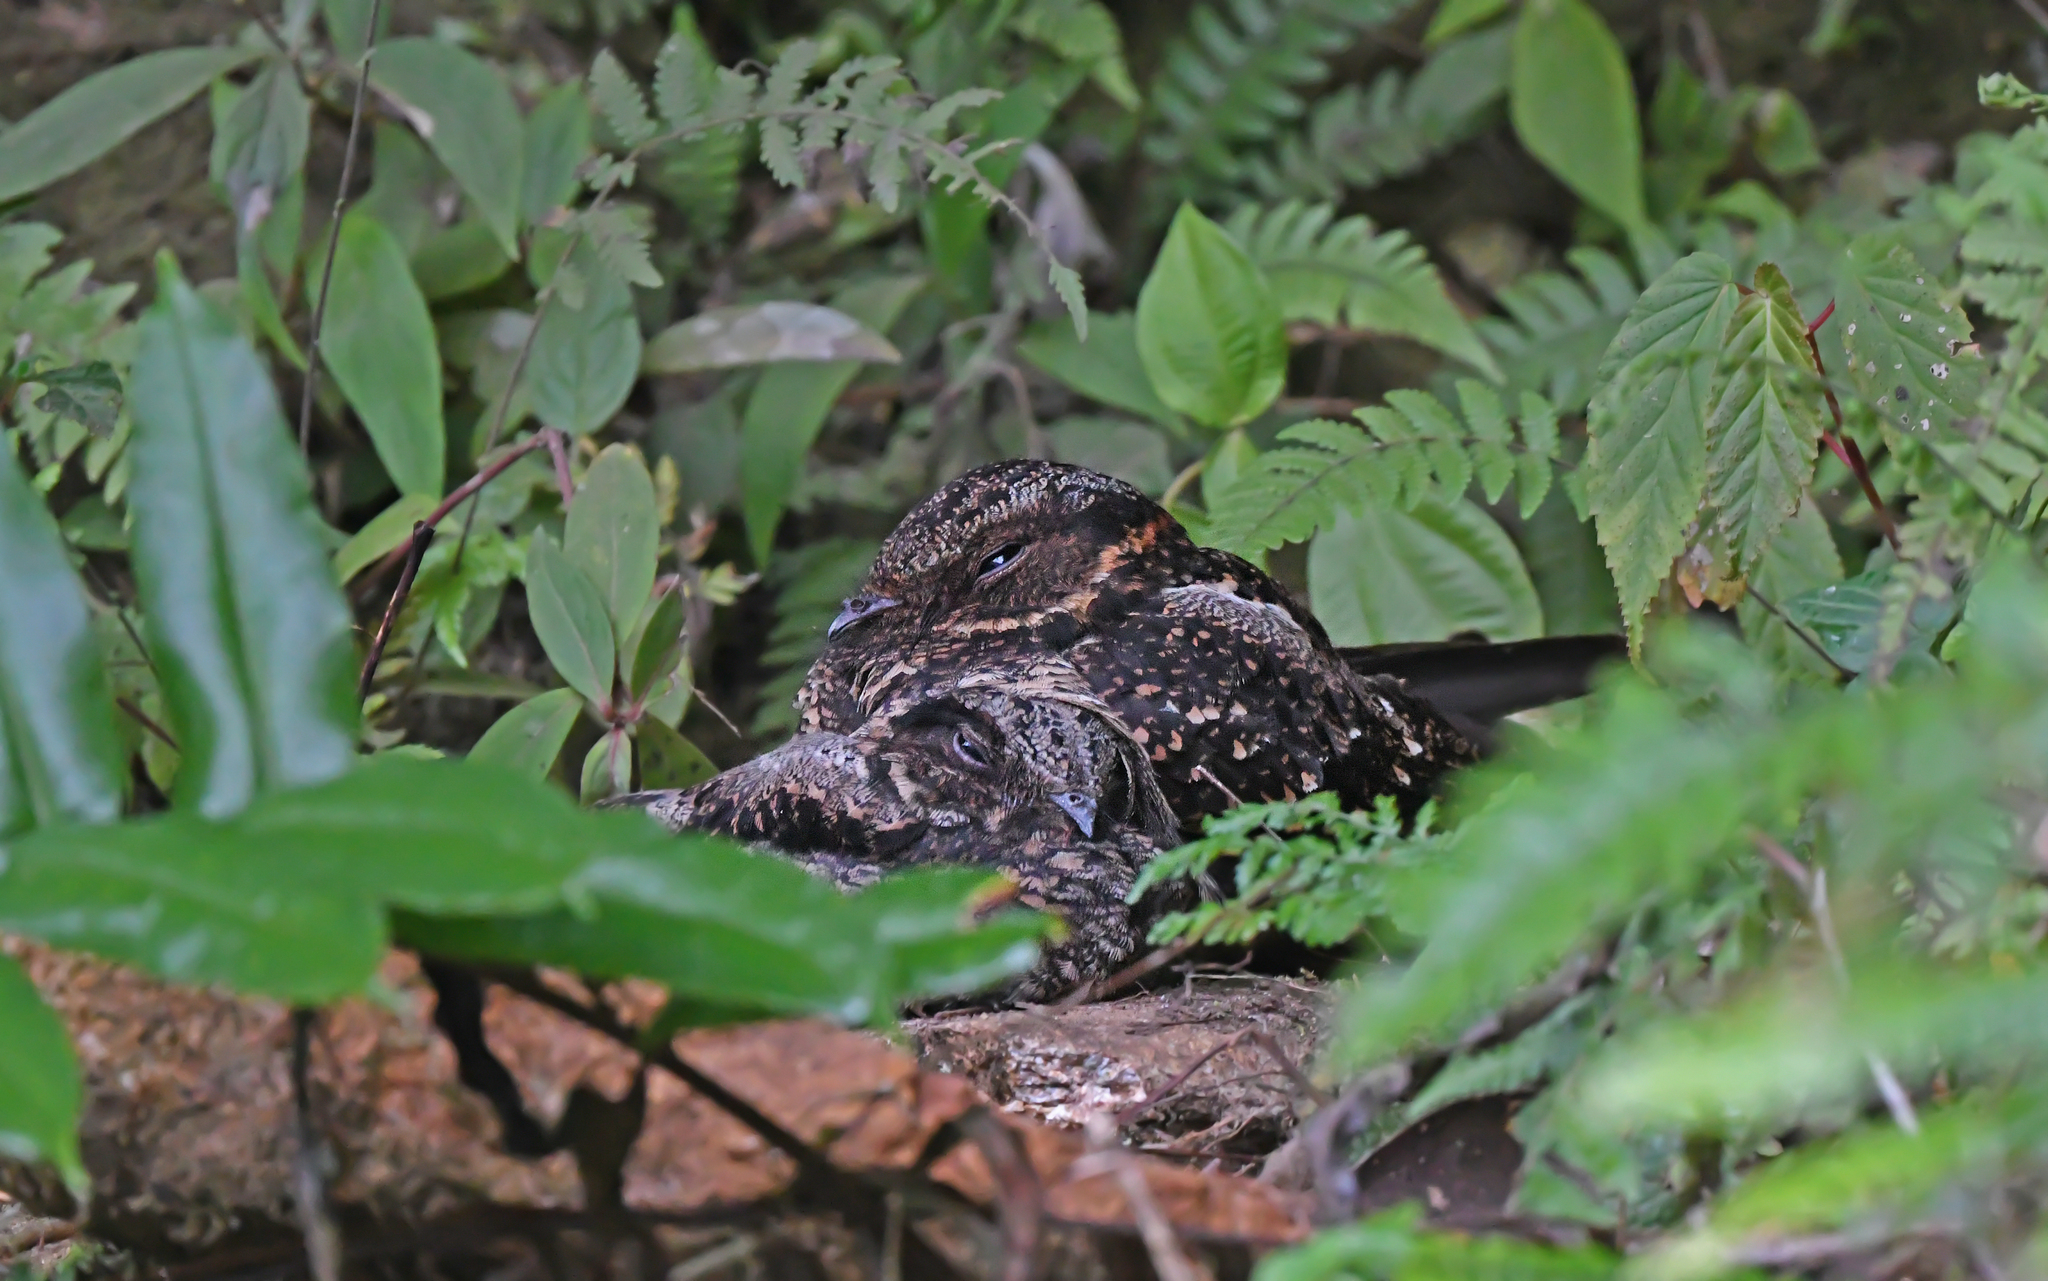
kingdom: Animalia
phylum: Chordata
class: Aves
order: Caprimulgiformes
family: Caprimulgidae
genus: Uropsalis
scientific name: Uropsalis lyra
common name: Lyre-tailed nightjar
